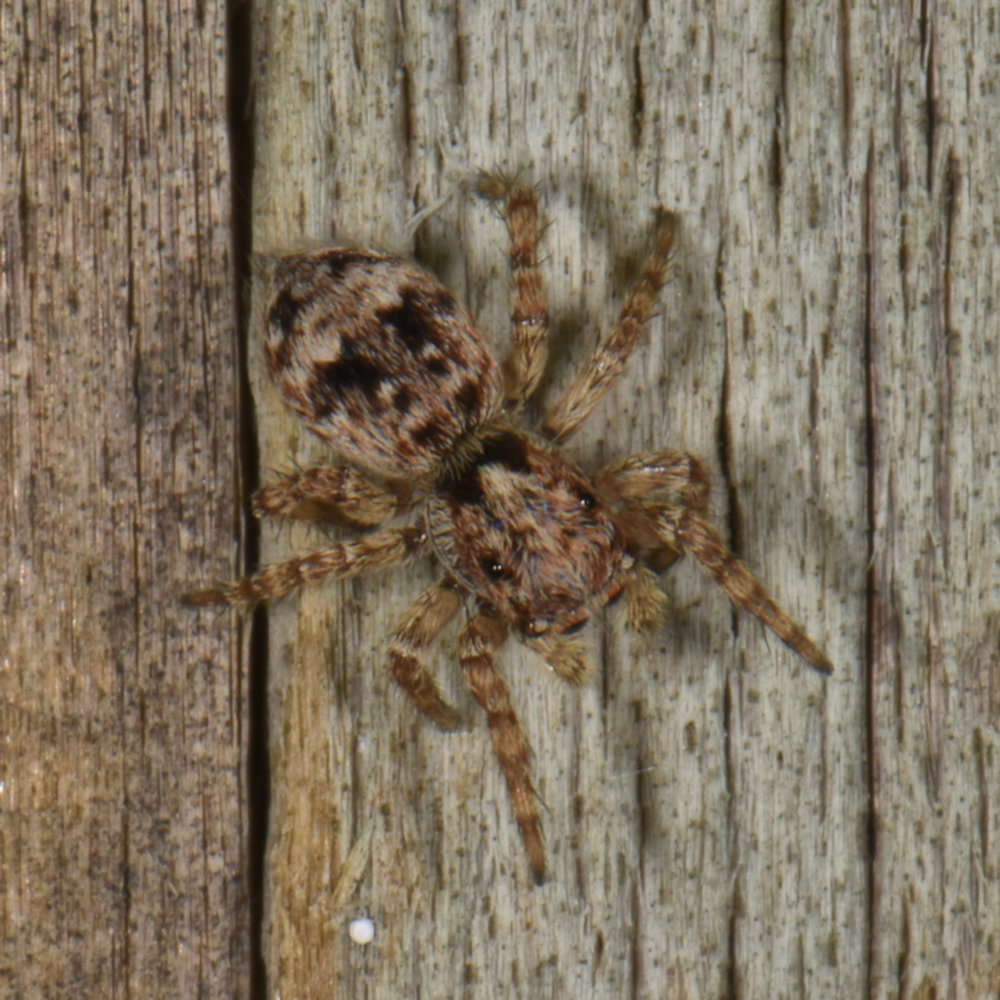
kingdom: Animalia
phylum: Arthropoda
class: Arachnida
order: Araneae
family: Salticidae
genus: Attulus
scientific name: Attulus fasciger
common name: Asiatic wall jumping spider
